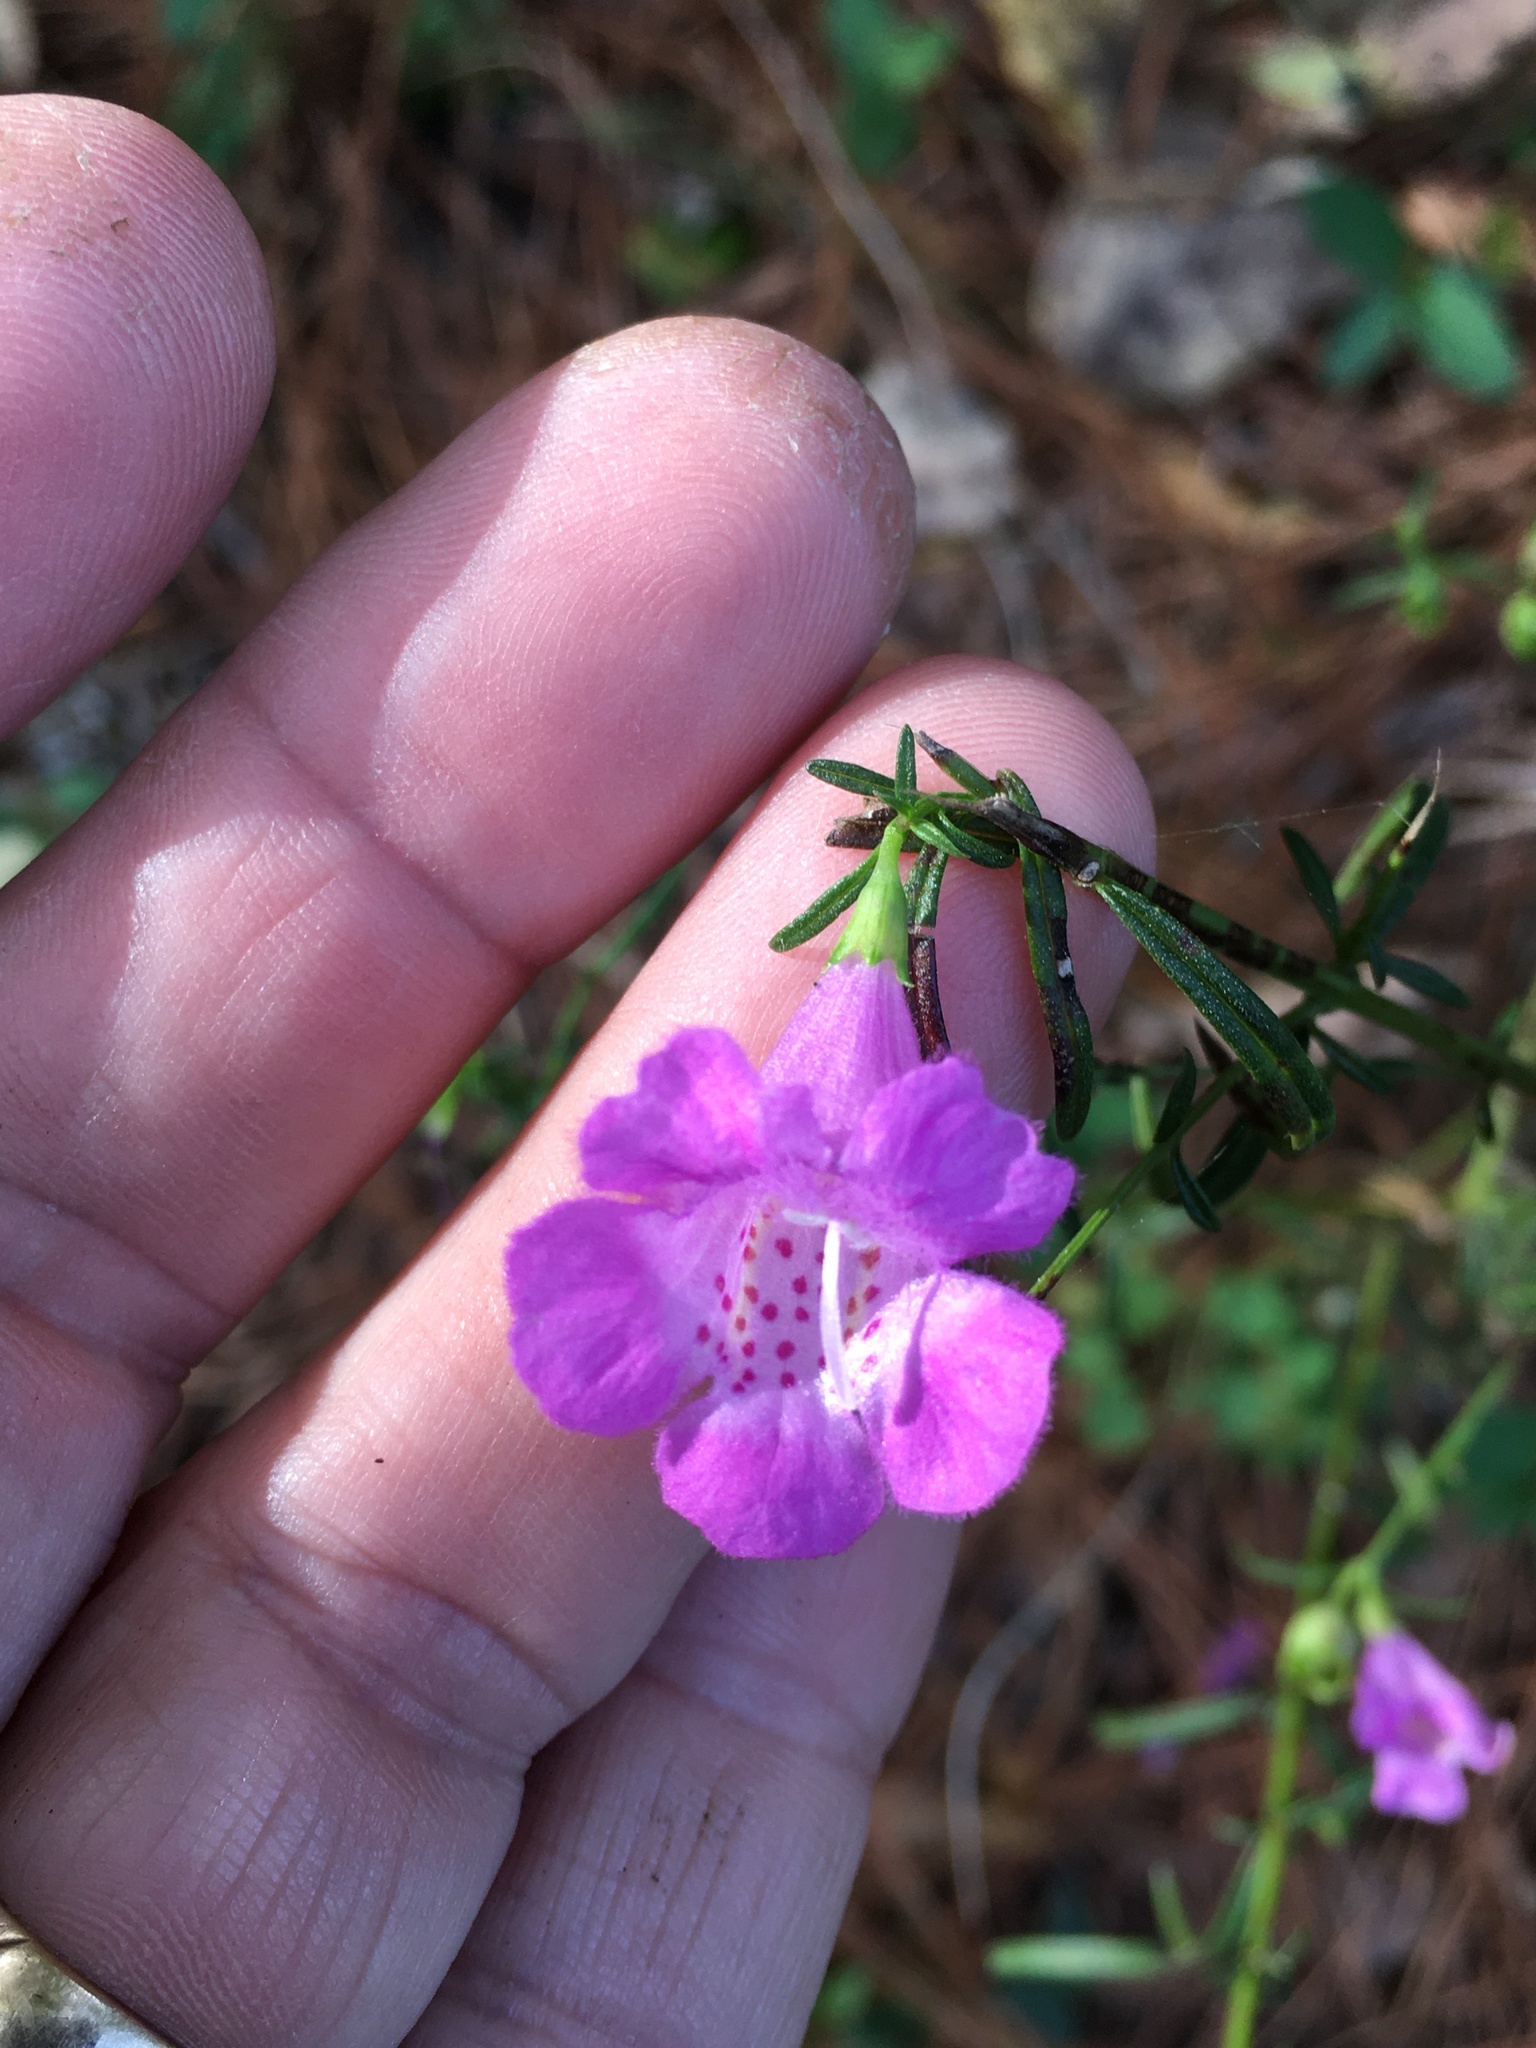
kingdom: Plantae
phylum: Tracheophyta
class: Magnoliopsida
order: Lamiales
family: Orobanchaceae
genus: Agalinis
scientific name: Agalinis purpurea
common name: Purple false foxglove
